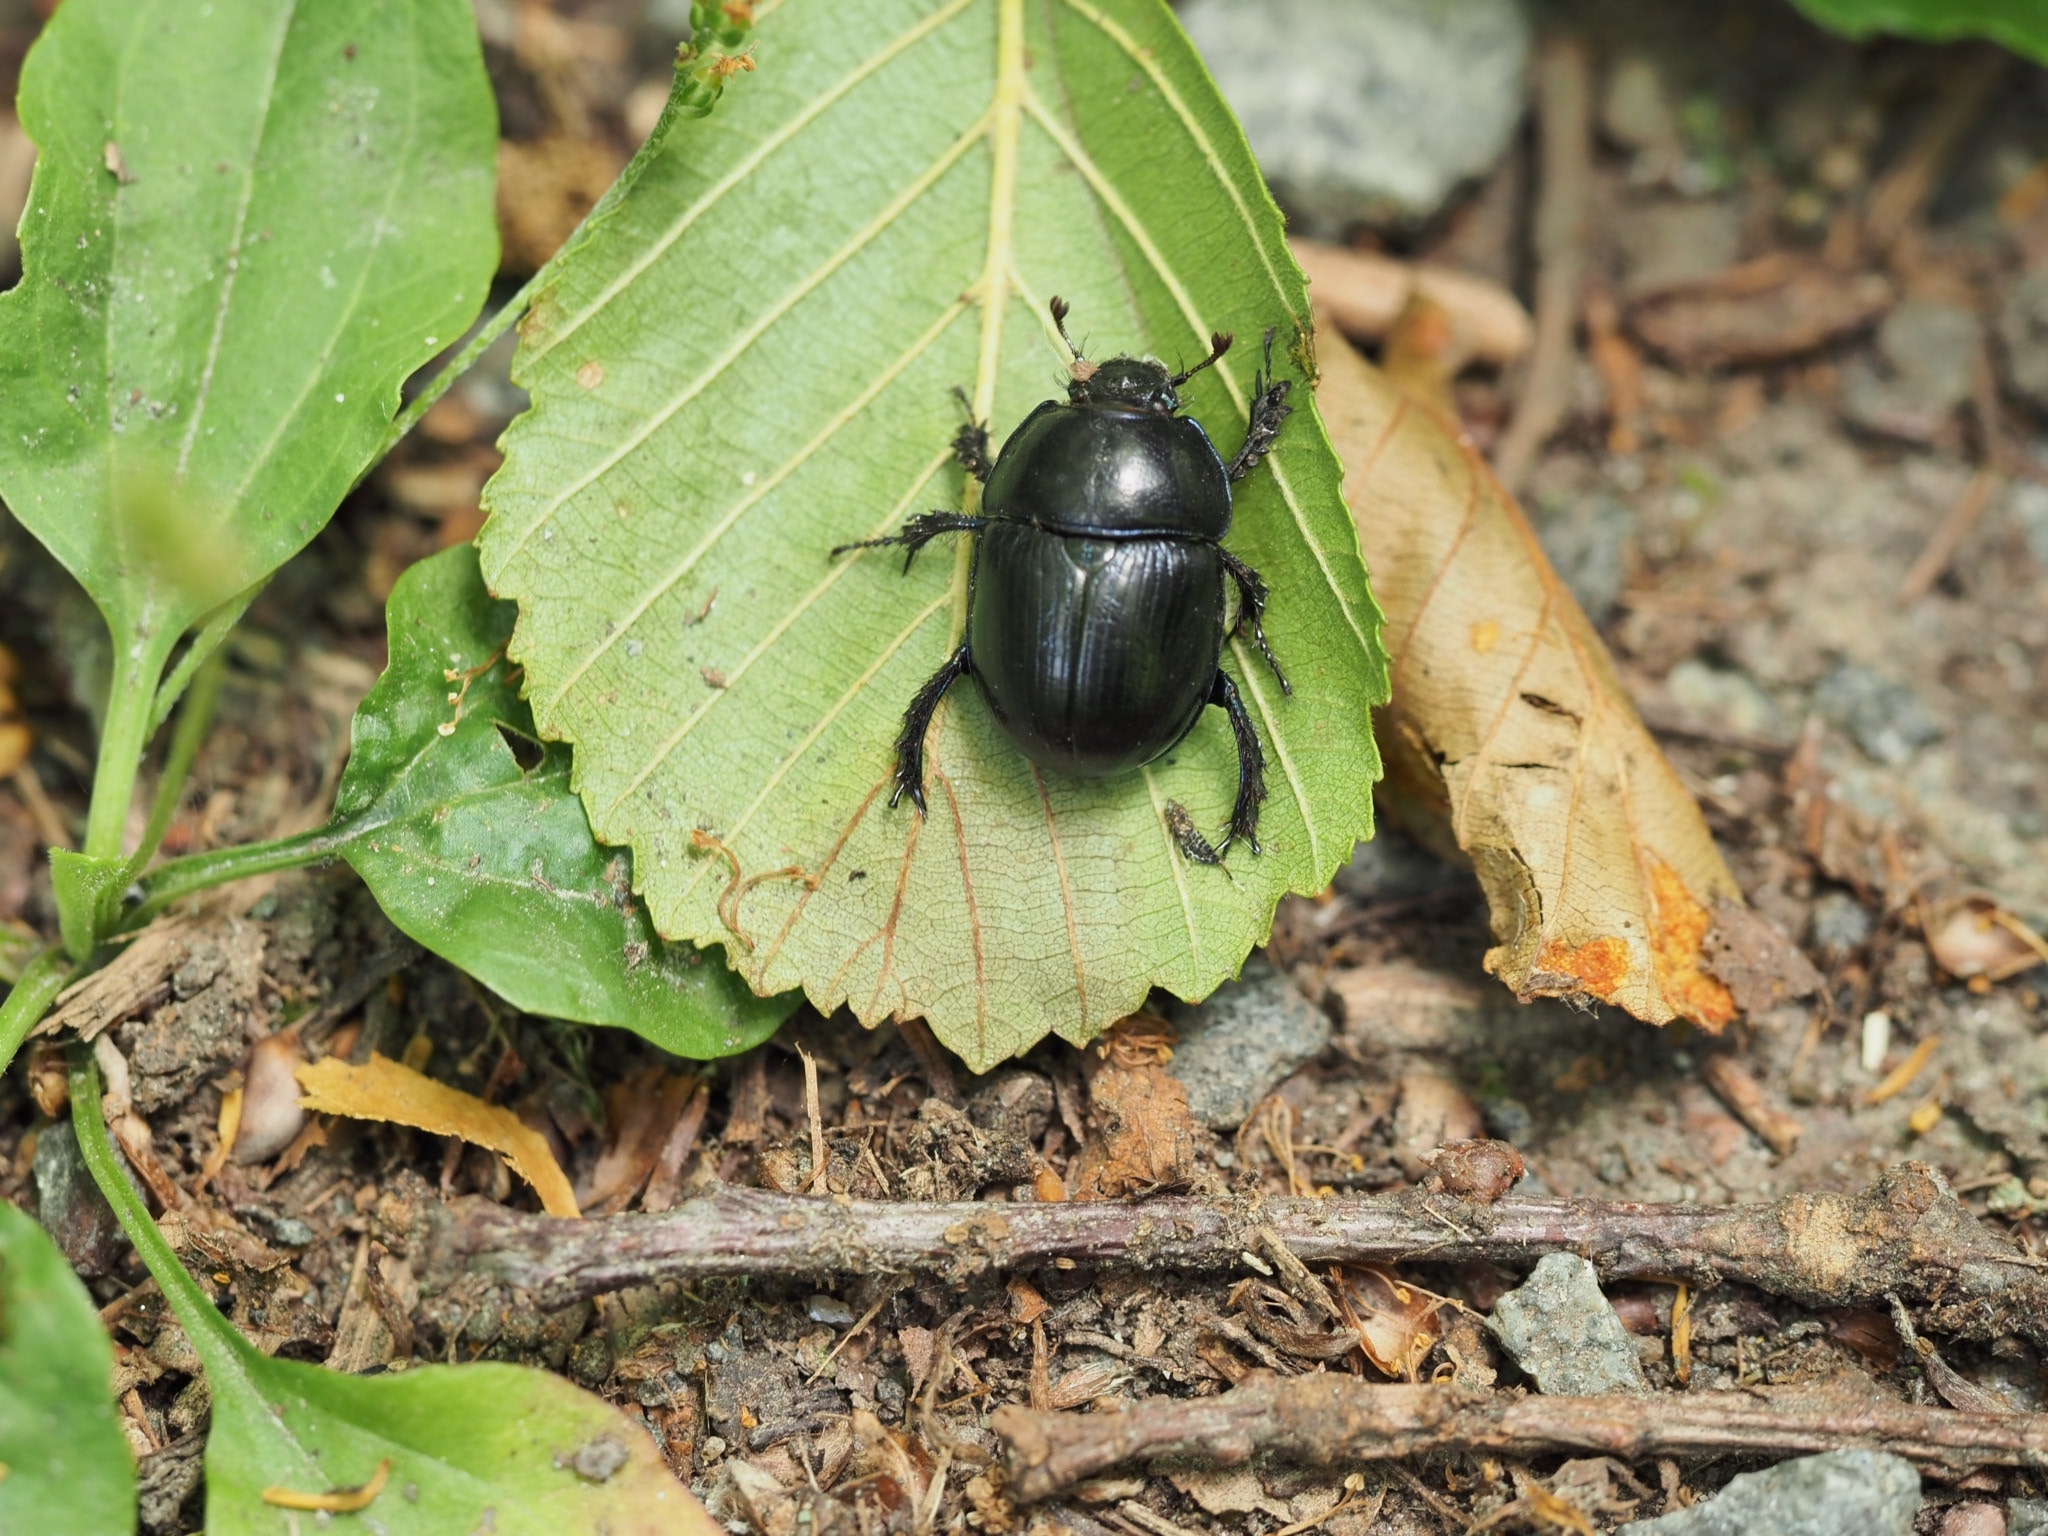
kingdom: Animalia
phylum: Arthropoda
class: Insecta
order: Coleoptera
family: Geotrupidae
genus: Anoplotrupes
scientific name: Anoplotrupes stercorosus
